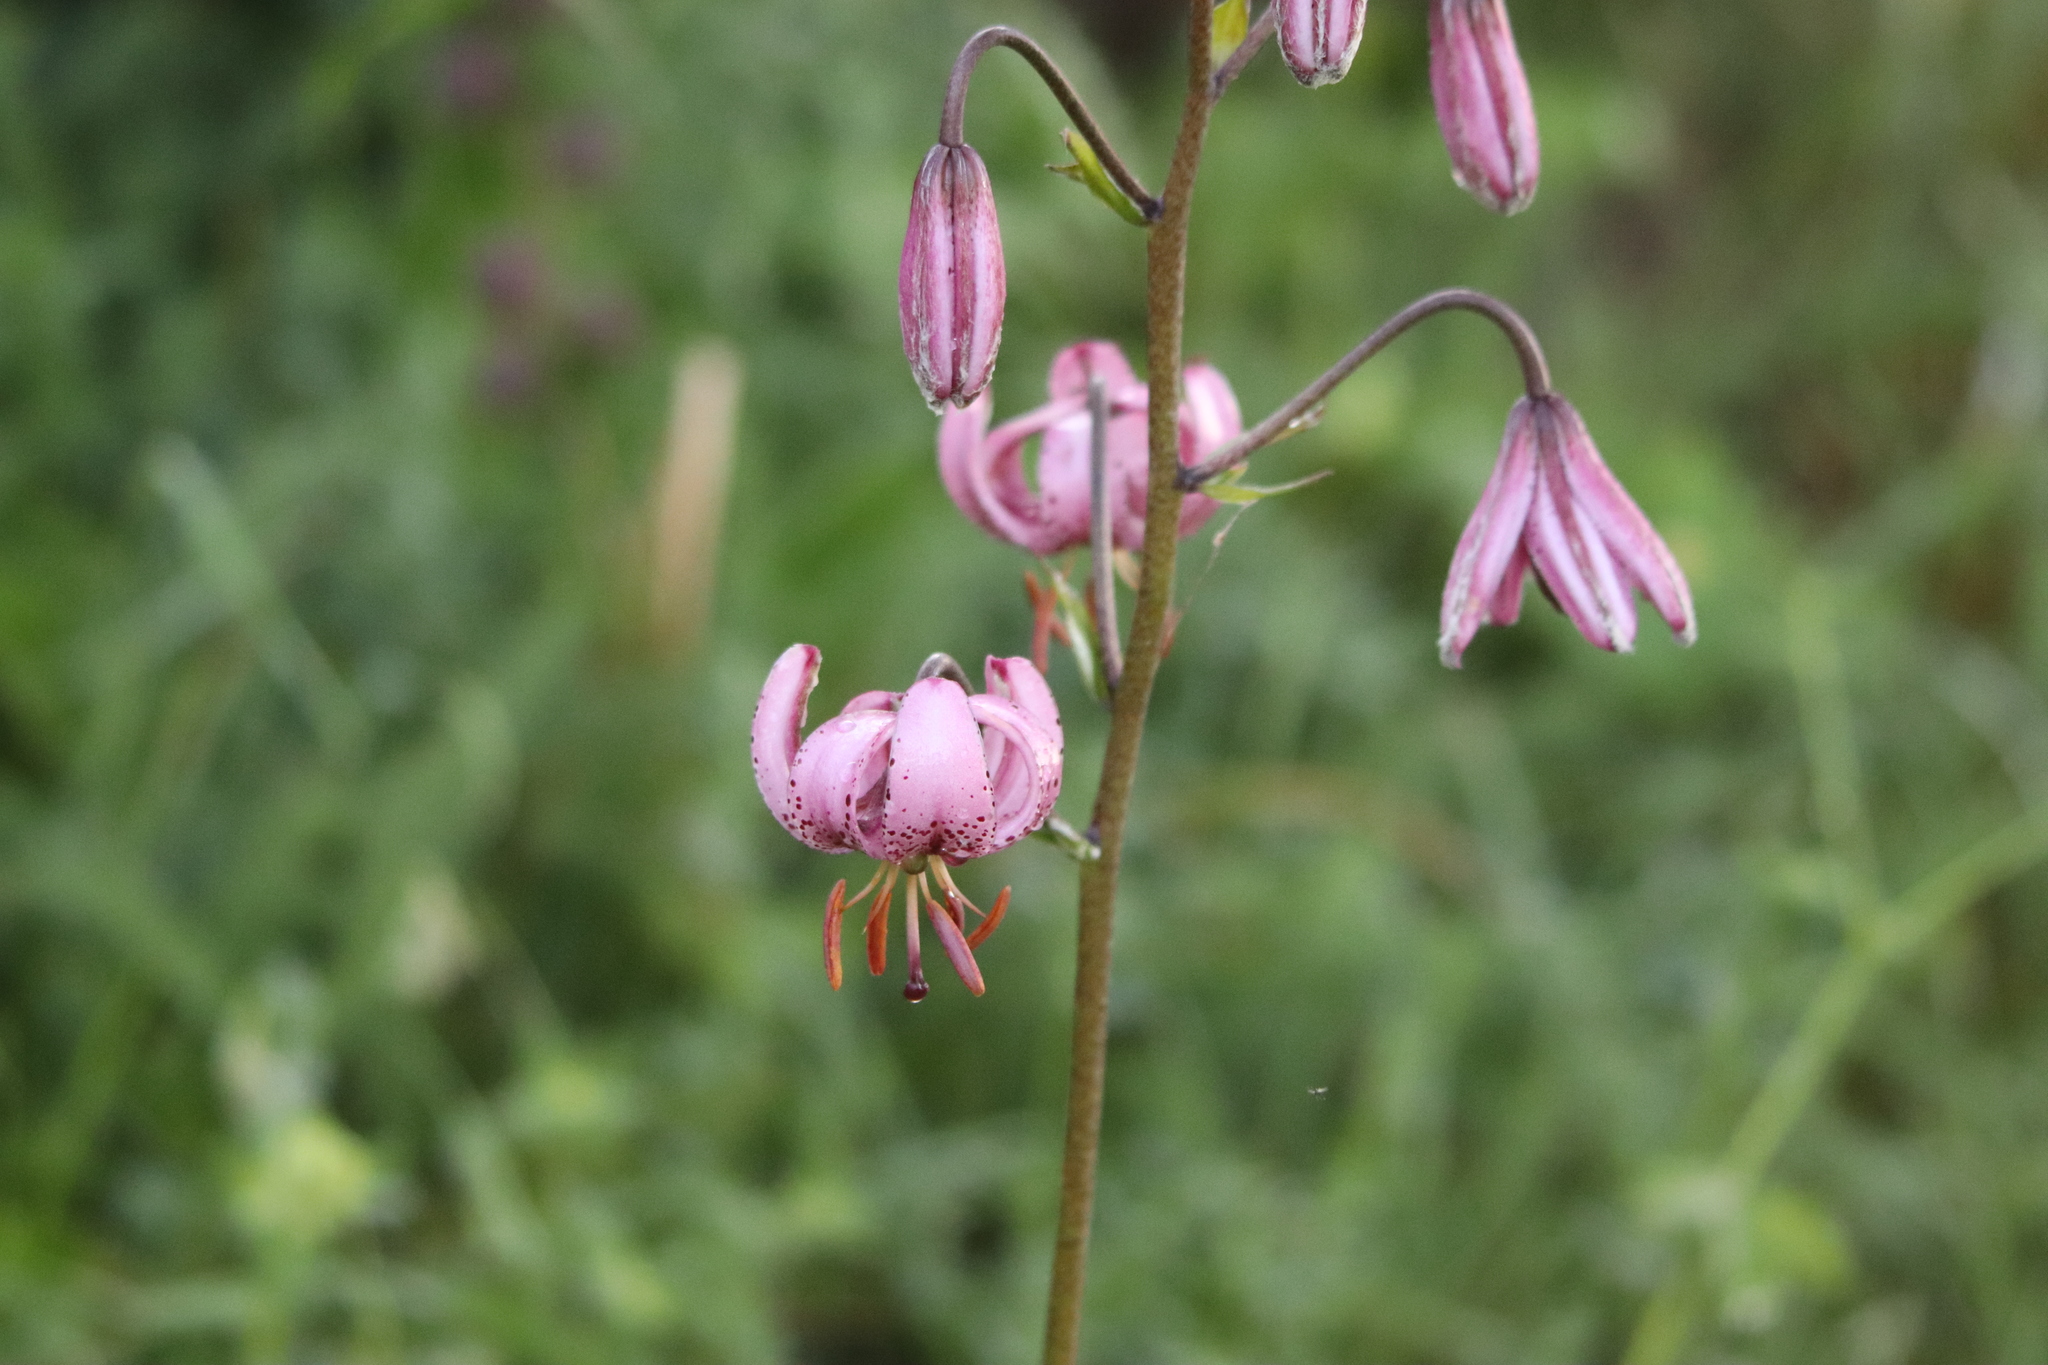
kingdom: Plantae
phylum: Tracheophyta
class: Liliopsida
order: Liliales
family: Liliaceae
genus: Lilium
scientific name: Lilium martagon
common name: Martagon lily
